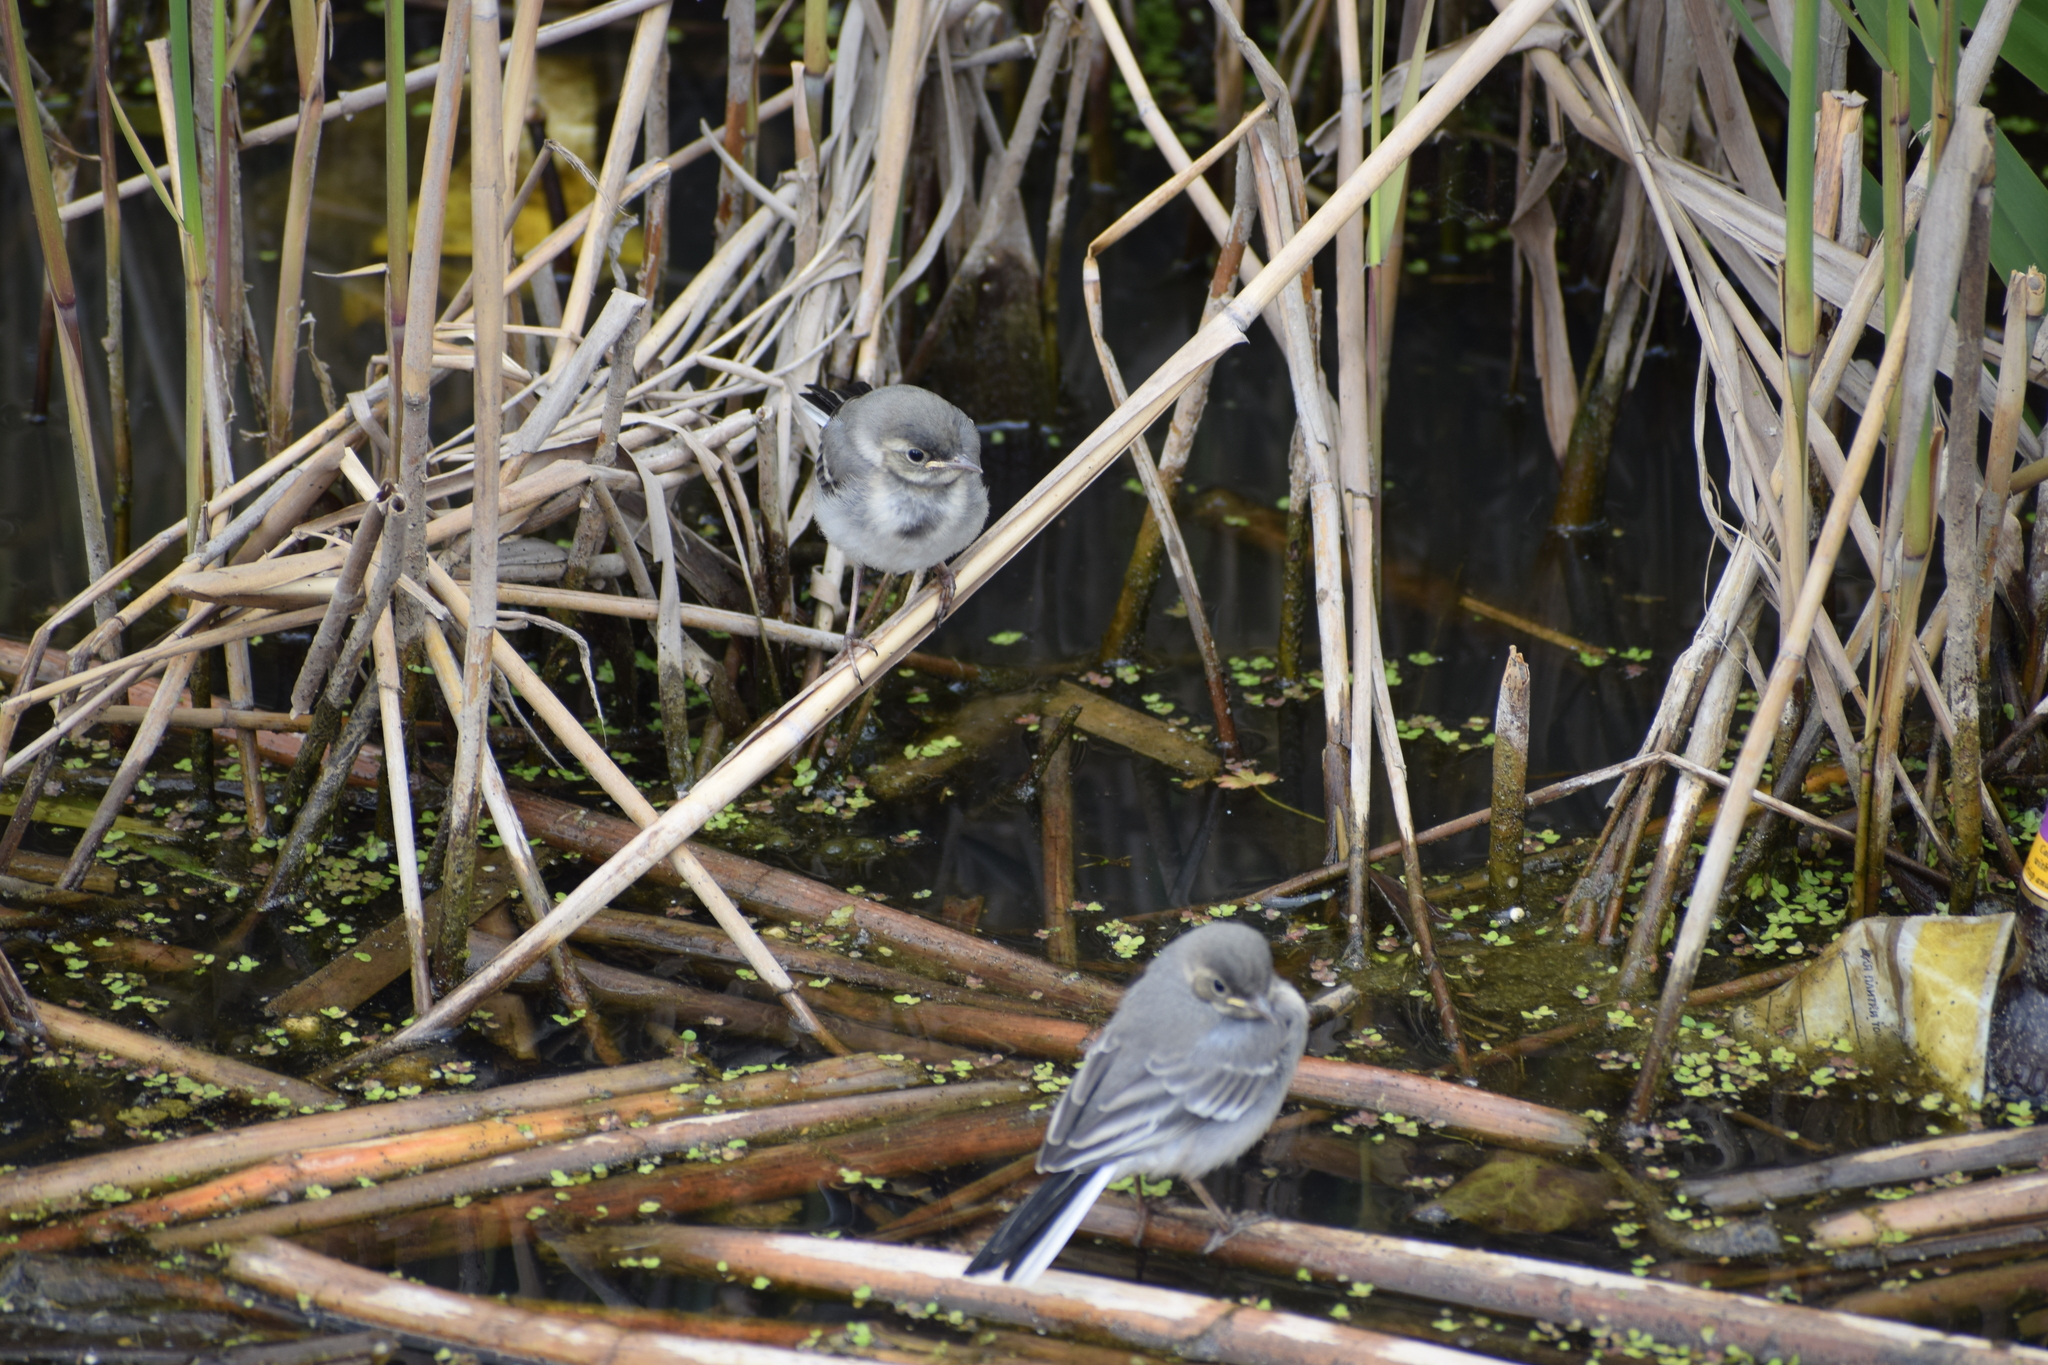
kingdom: Animalia
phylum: Chordata
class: Aves
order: Passeriformes
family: Motacillidae
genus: Motacilla
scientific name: Motacilla alba
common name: White wagtail
